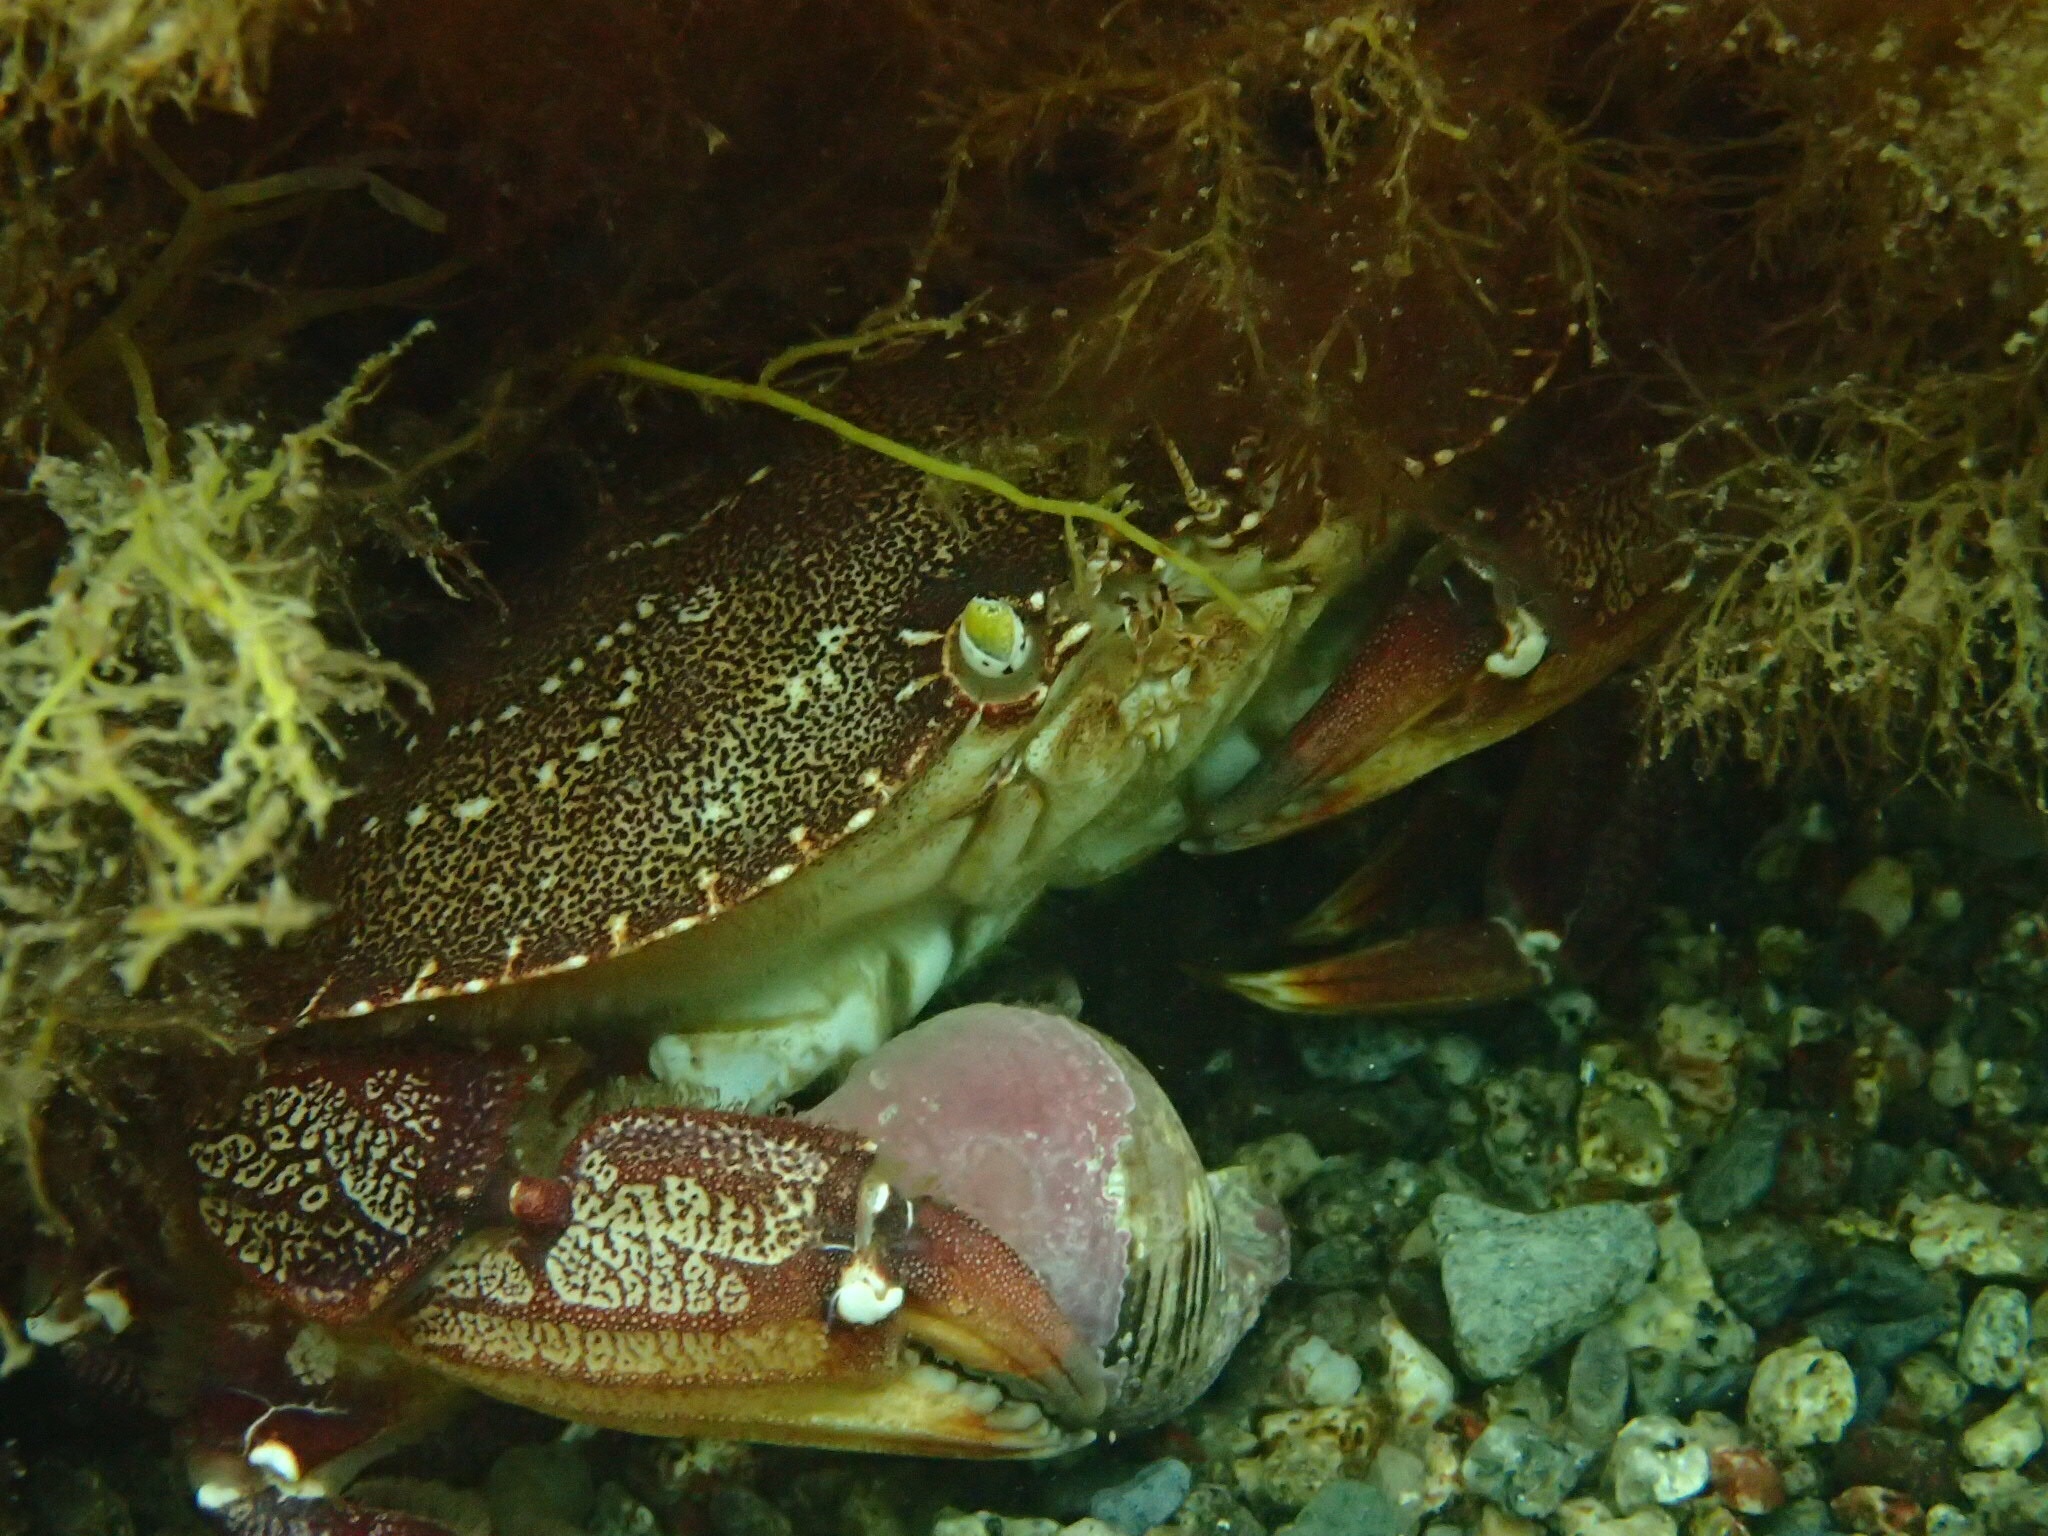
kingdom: Animalia
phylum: Arthropoda
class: Malacostraca
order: Decapoda
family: Cancridae
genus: Cancer
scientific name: Cancer irroratus
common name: Atlantic rock crab
